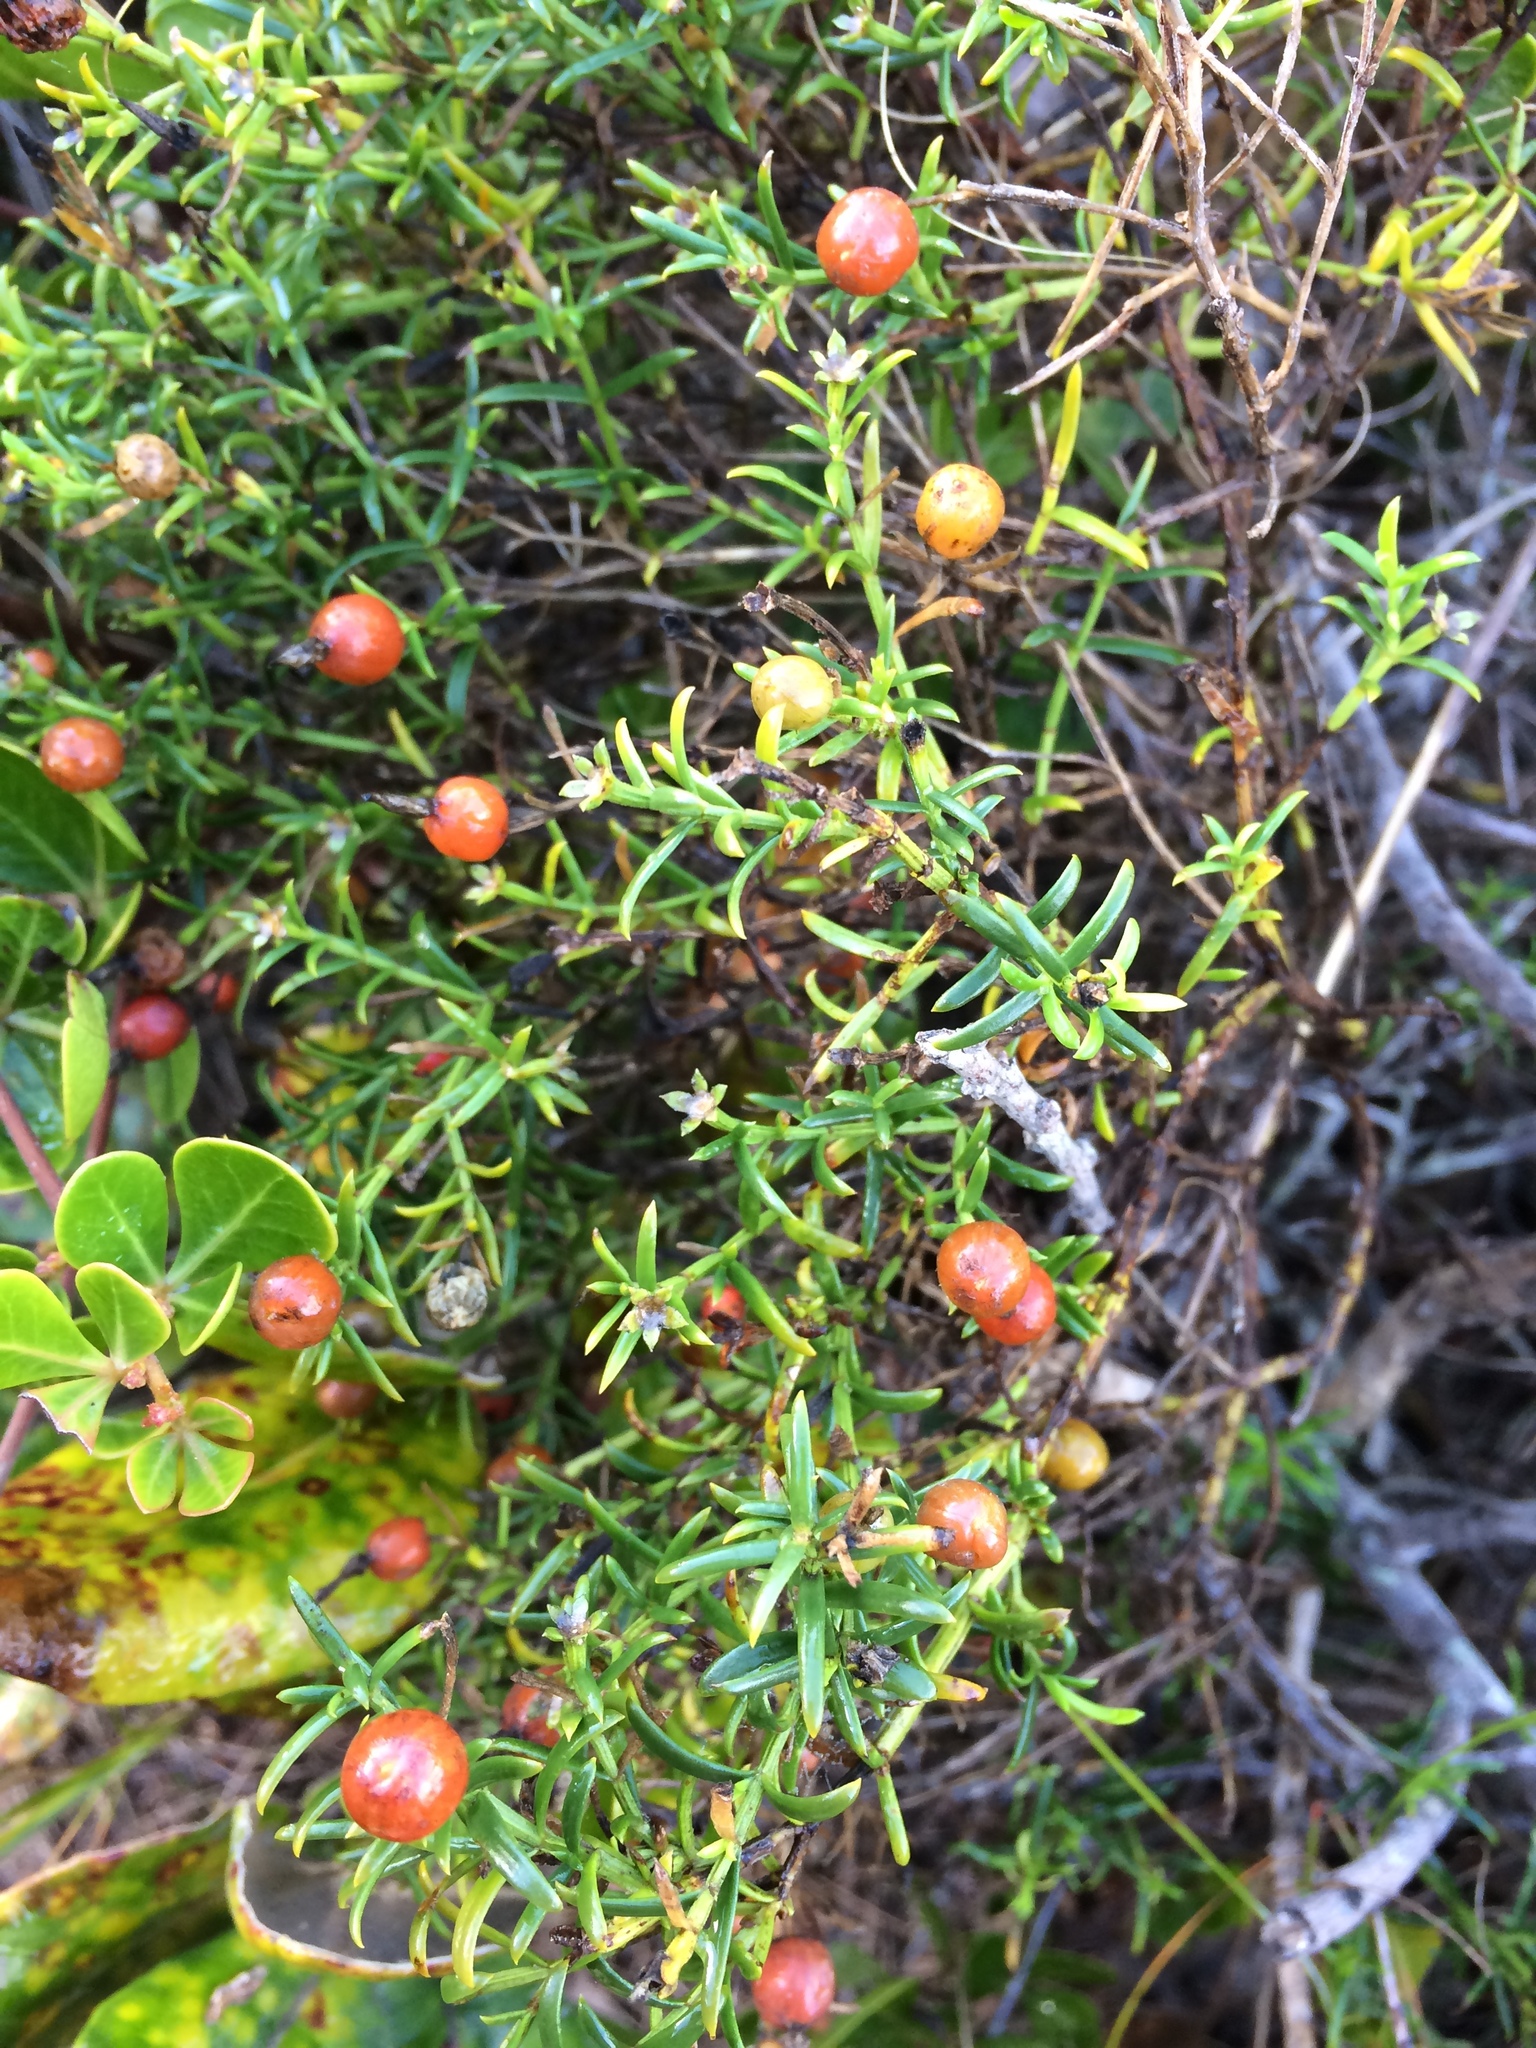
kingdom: Plantae
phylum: Tracheophyta
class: Magnoliopsida
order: Gentianales
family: Gentianaceae
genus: Chironia
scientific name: Chironia baccifera
